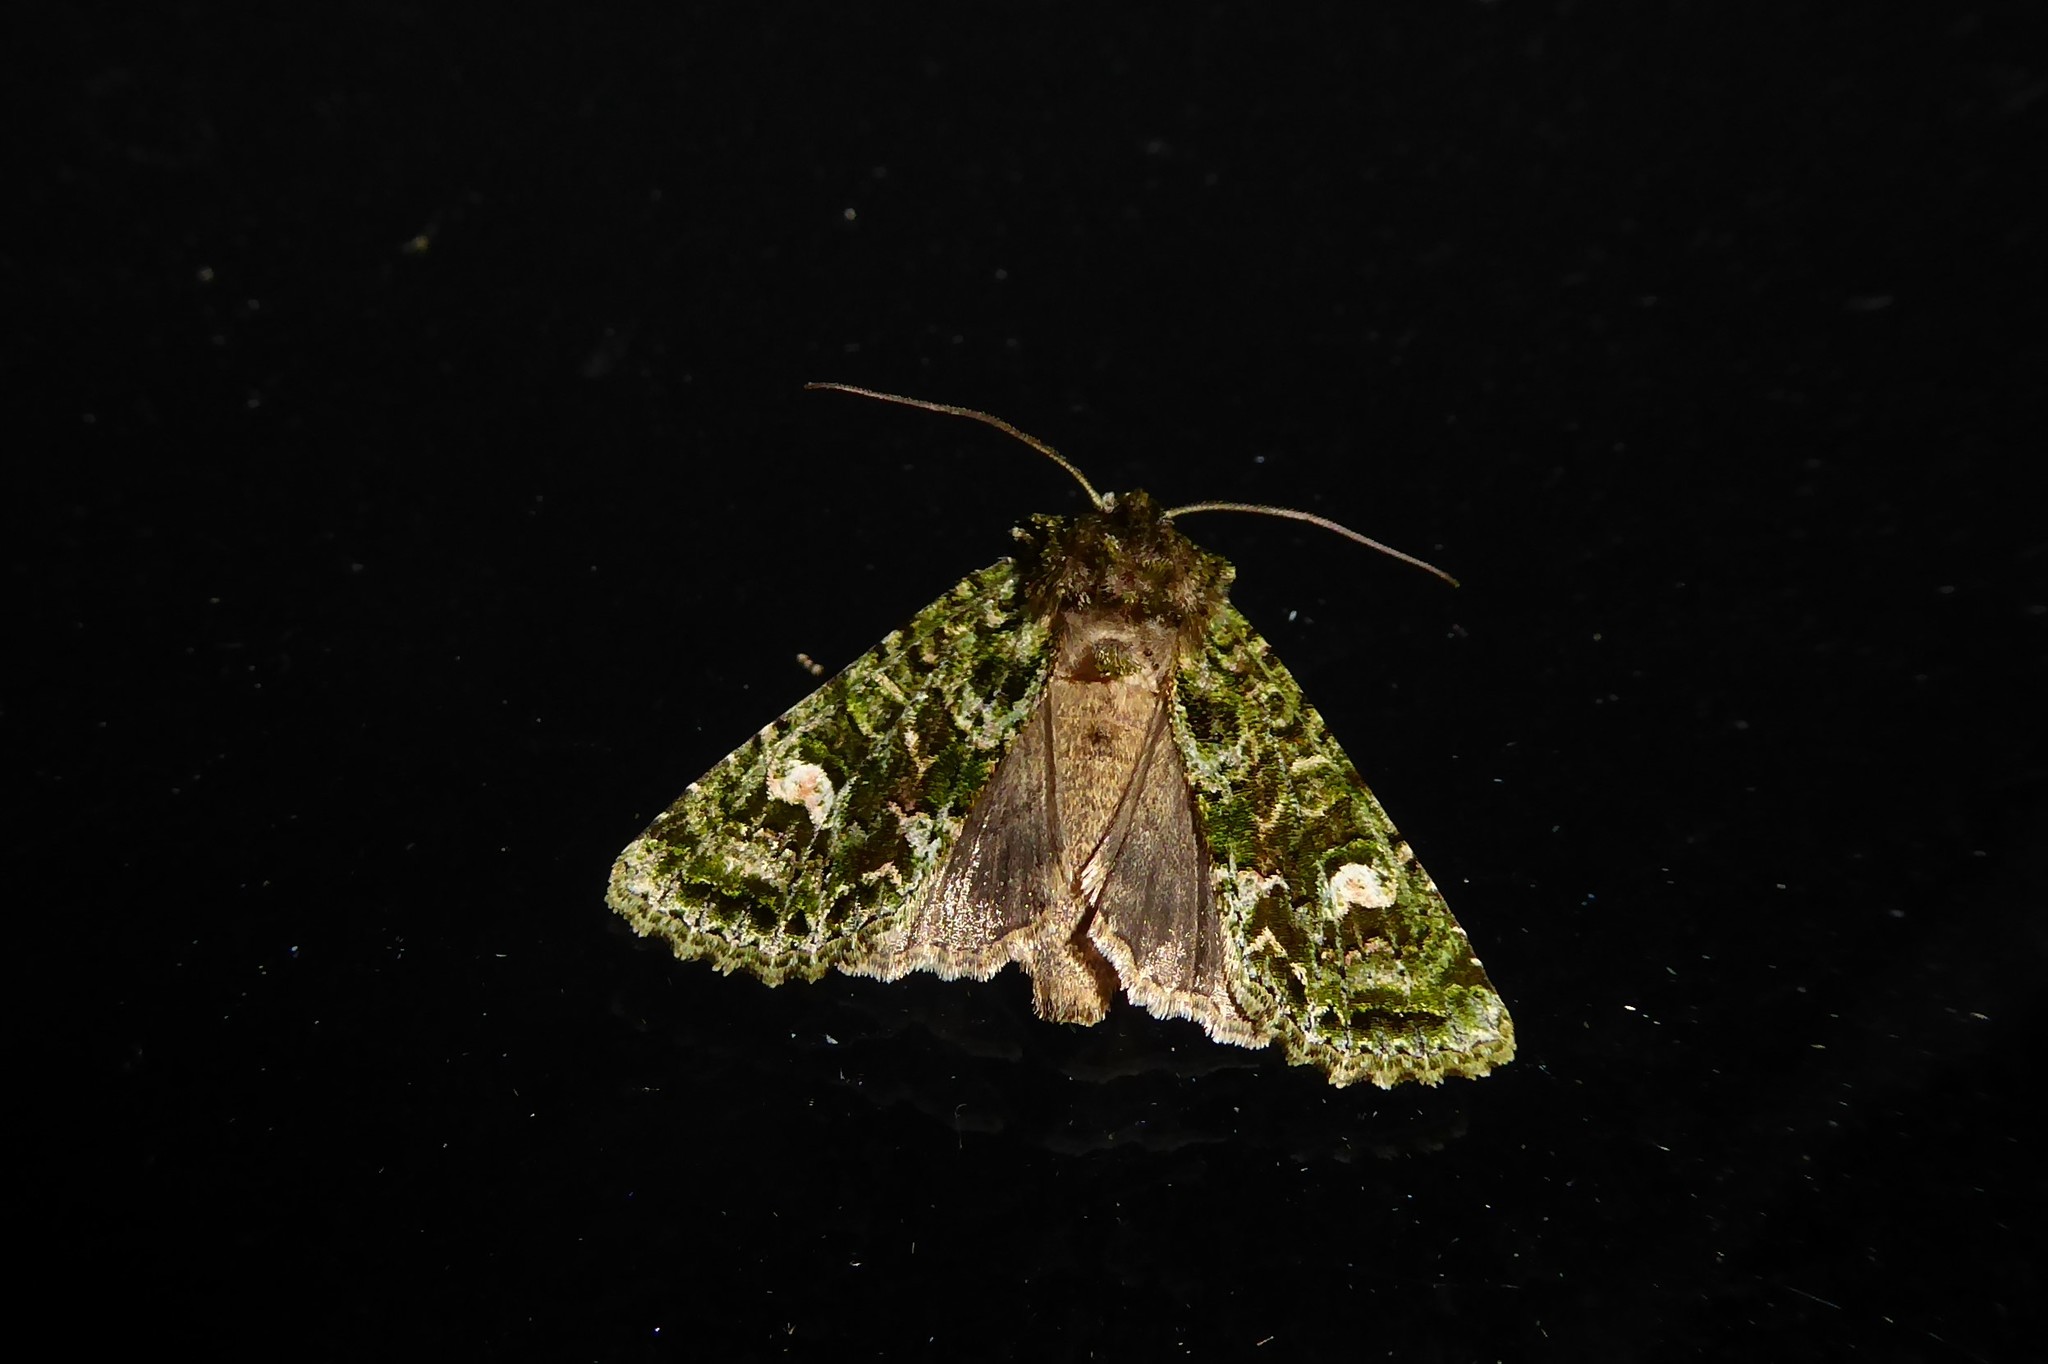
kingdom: Animalia
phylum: Arthropoda
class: Insecta
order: Lepidoptera
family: Noctuidae
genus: Ichneutica
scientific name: Ichneutica
